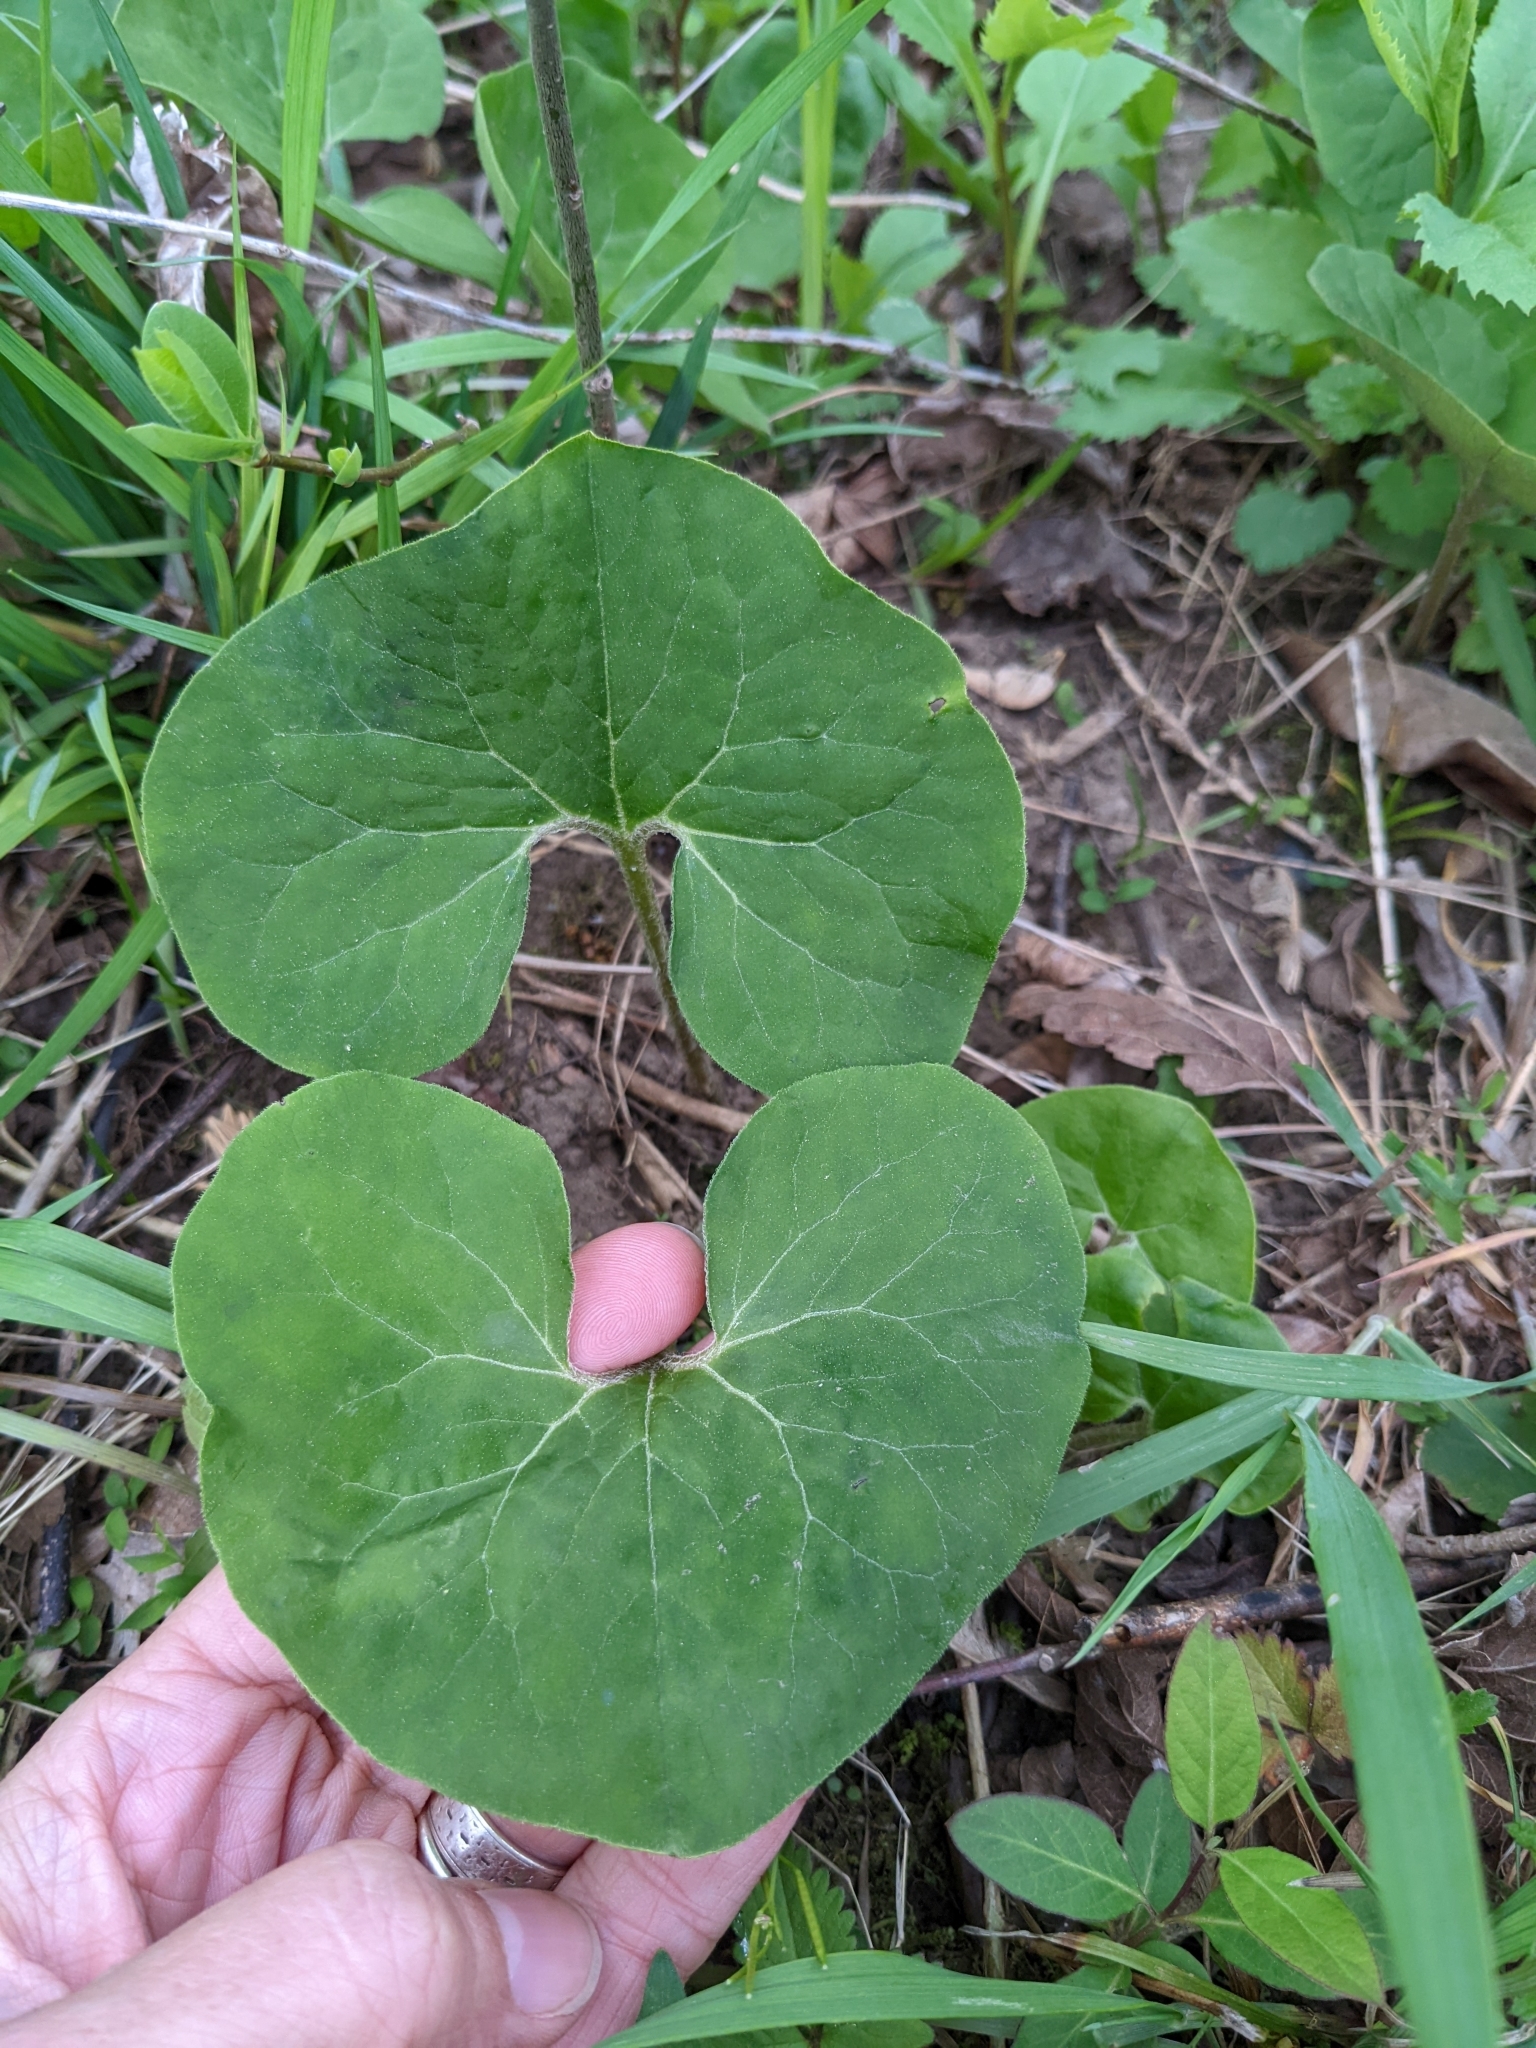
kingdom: Plantae
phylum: Tracheophyta
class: Magnoliopsida
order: Piperales
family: Aristolochiaceae
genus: Asarum
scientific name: Asarum canadense
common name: Wild ginger
